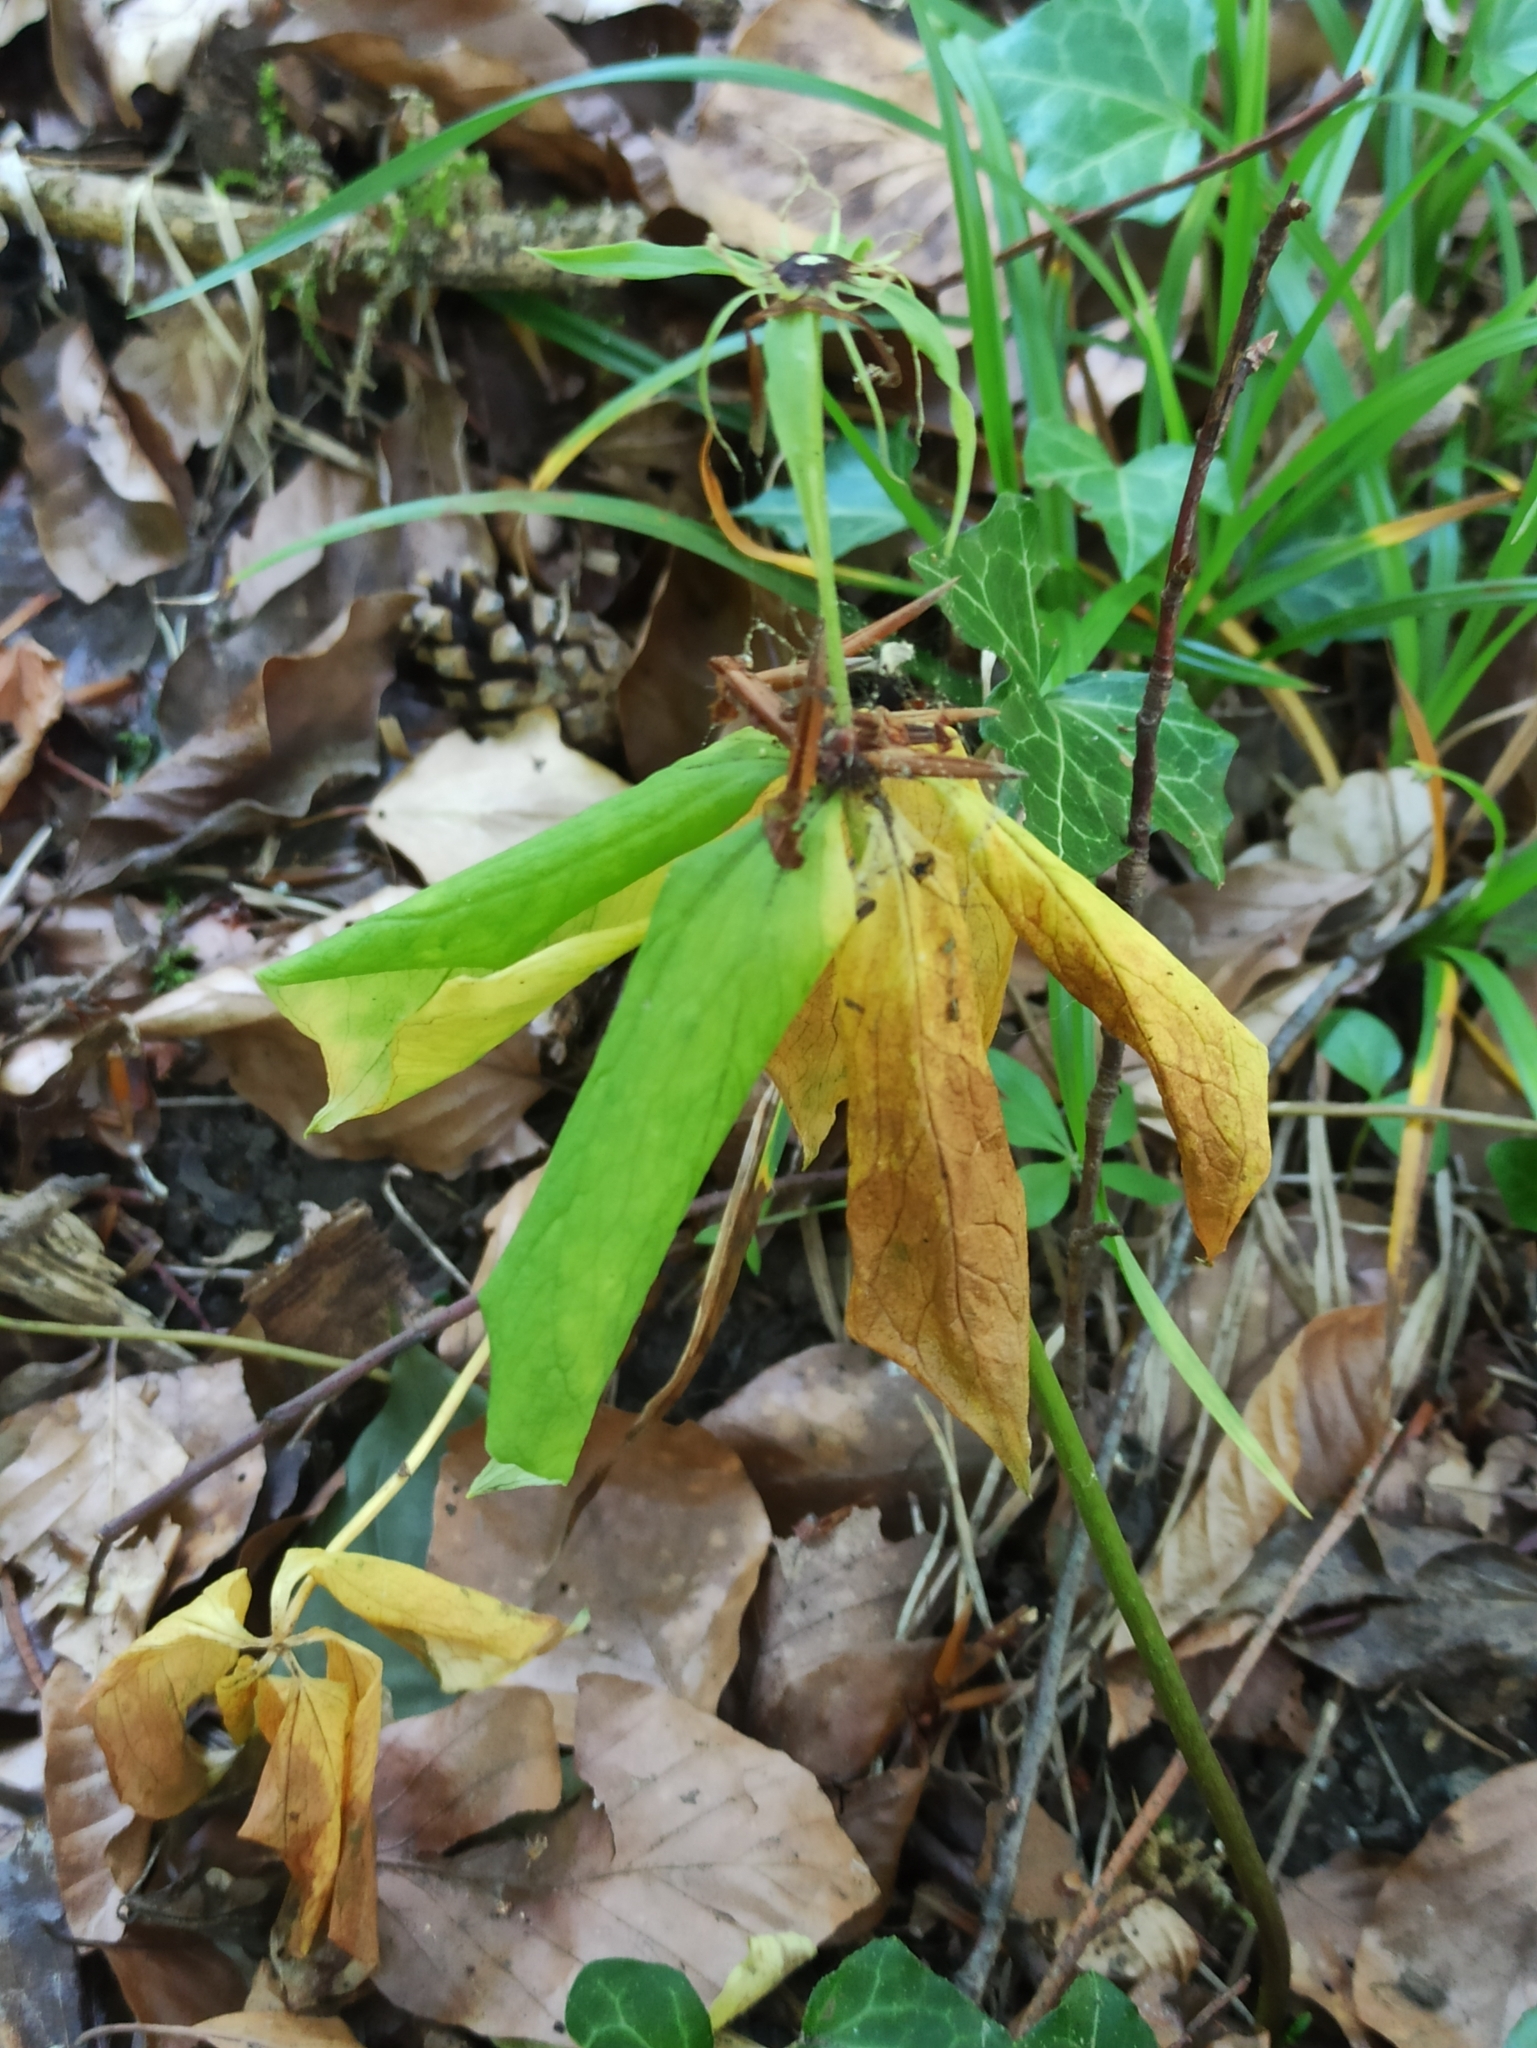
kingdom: Plantae
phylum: Tracheophyta
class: Liliopsida
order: Liliales
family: Melanthiaceae
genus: Paris
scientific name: Paris quadrifolia
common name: Herb-paris
